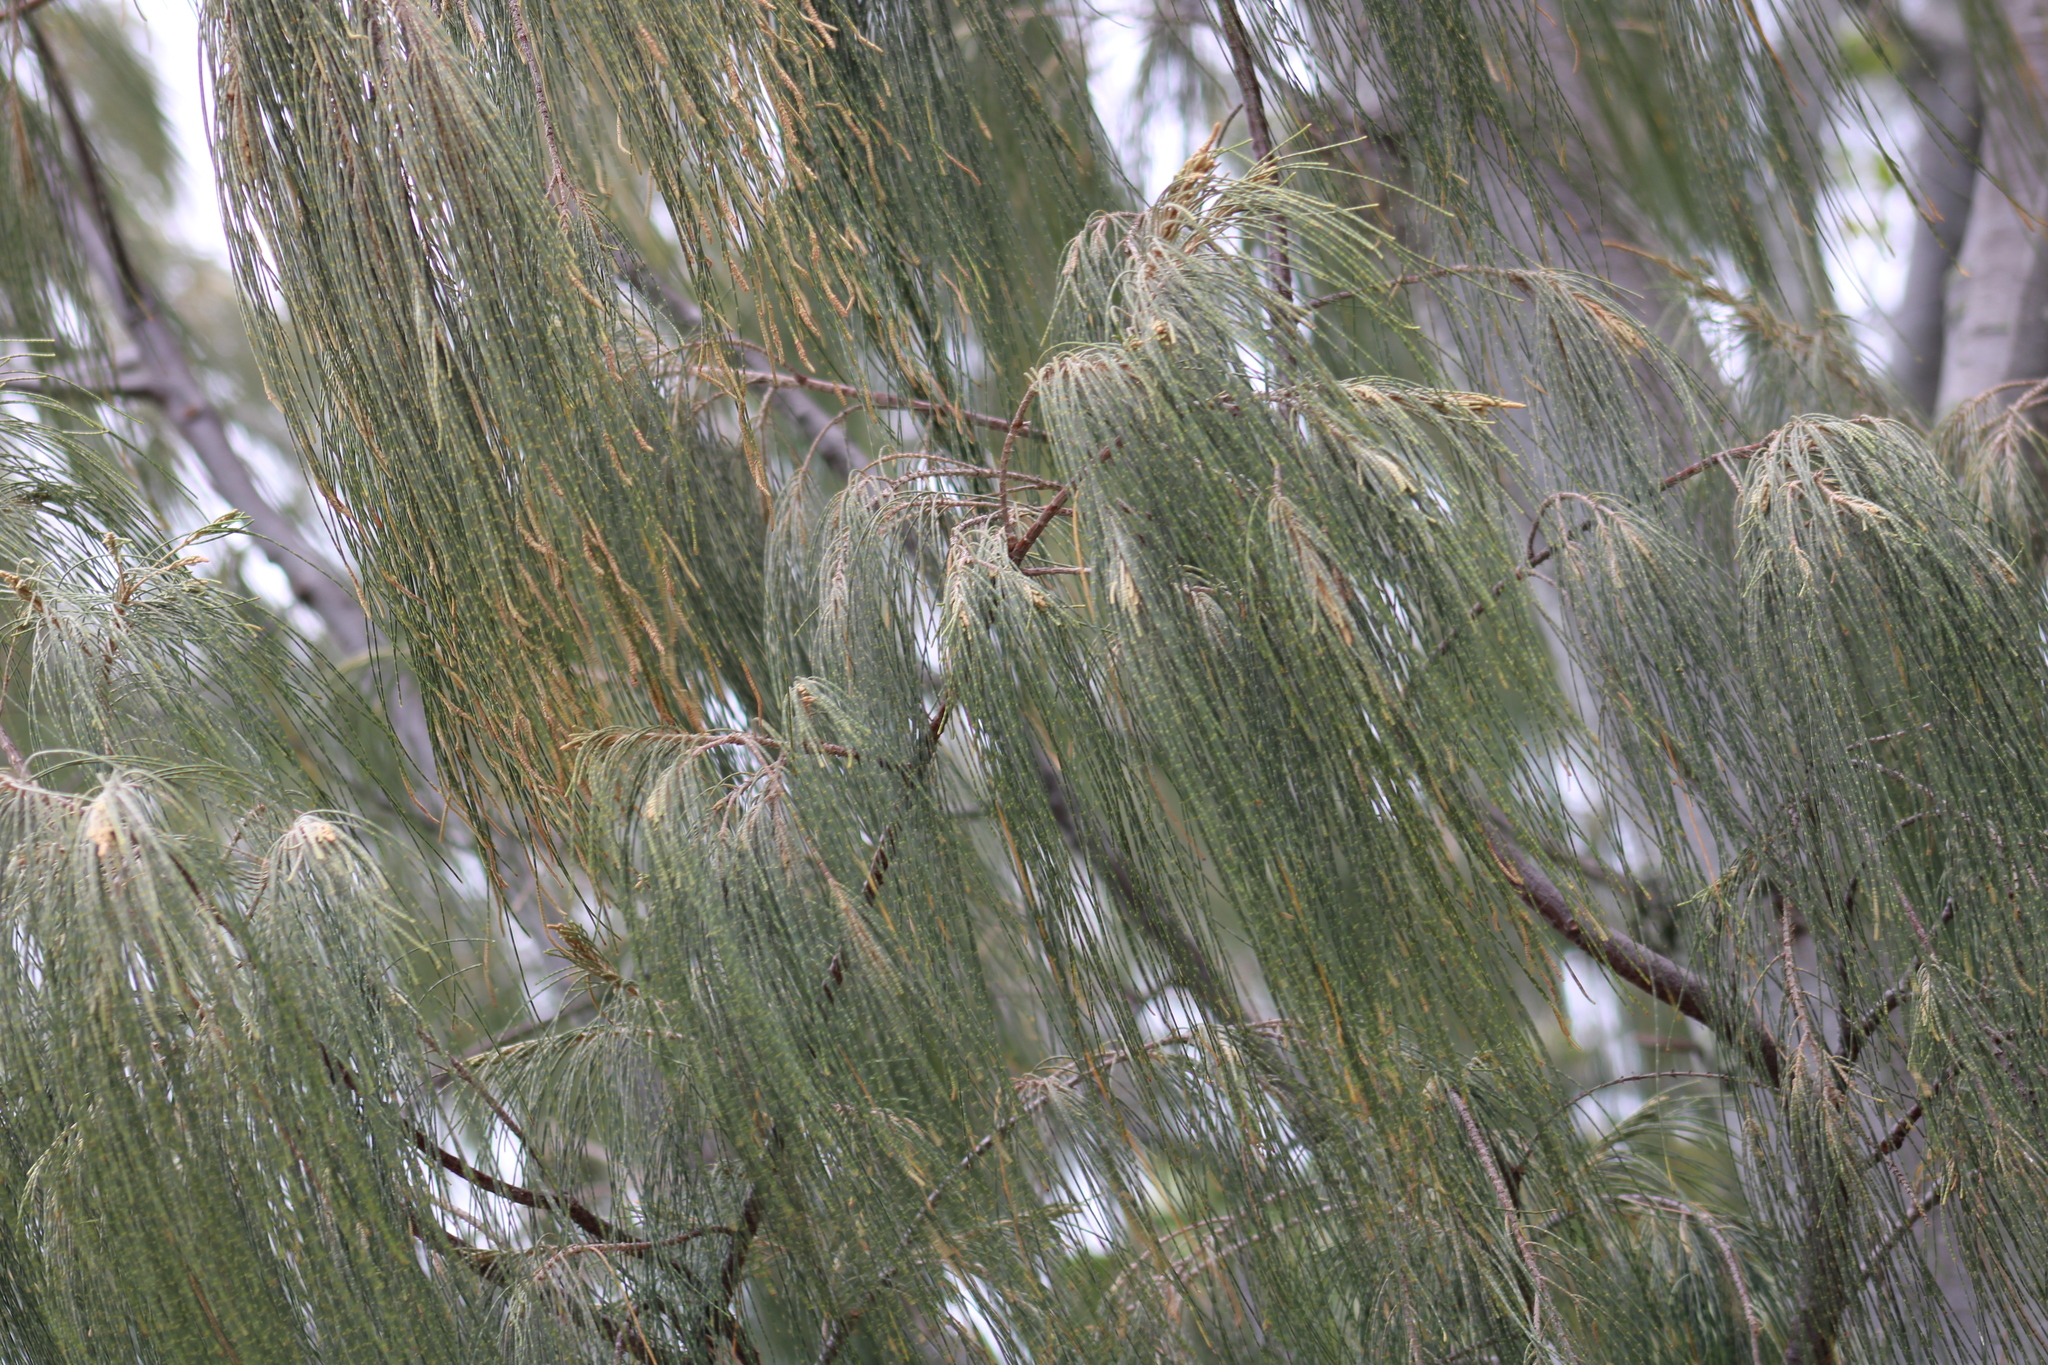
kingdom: Plantae
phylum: Tracheophyta
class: Magnoliopsida
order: Fagales
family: Casuarinaceae
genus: Casuarina
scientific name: Casuarina equisetifolia
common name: Beach sheoak
